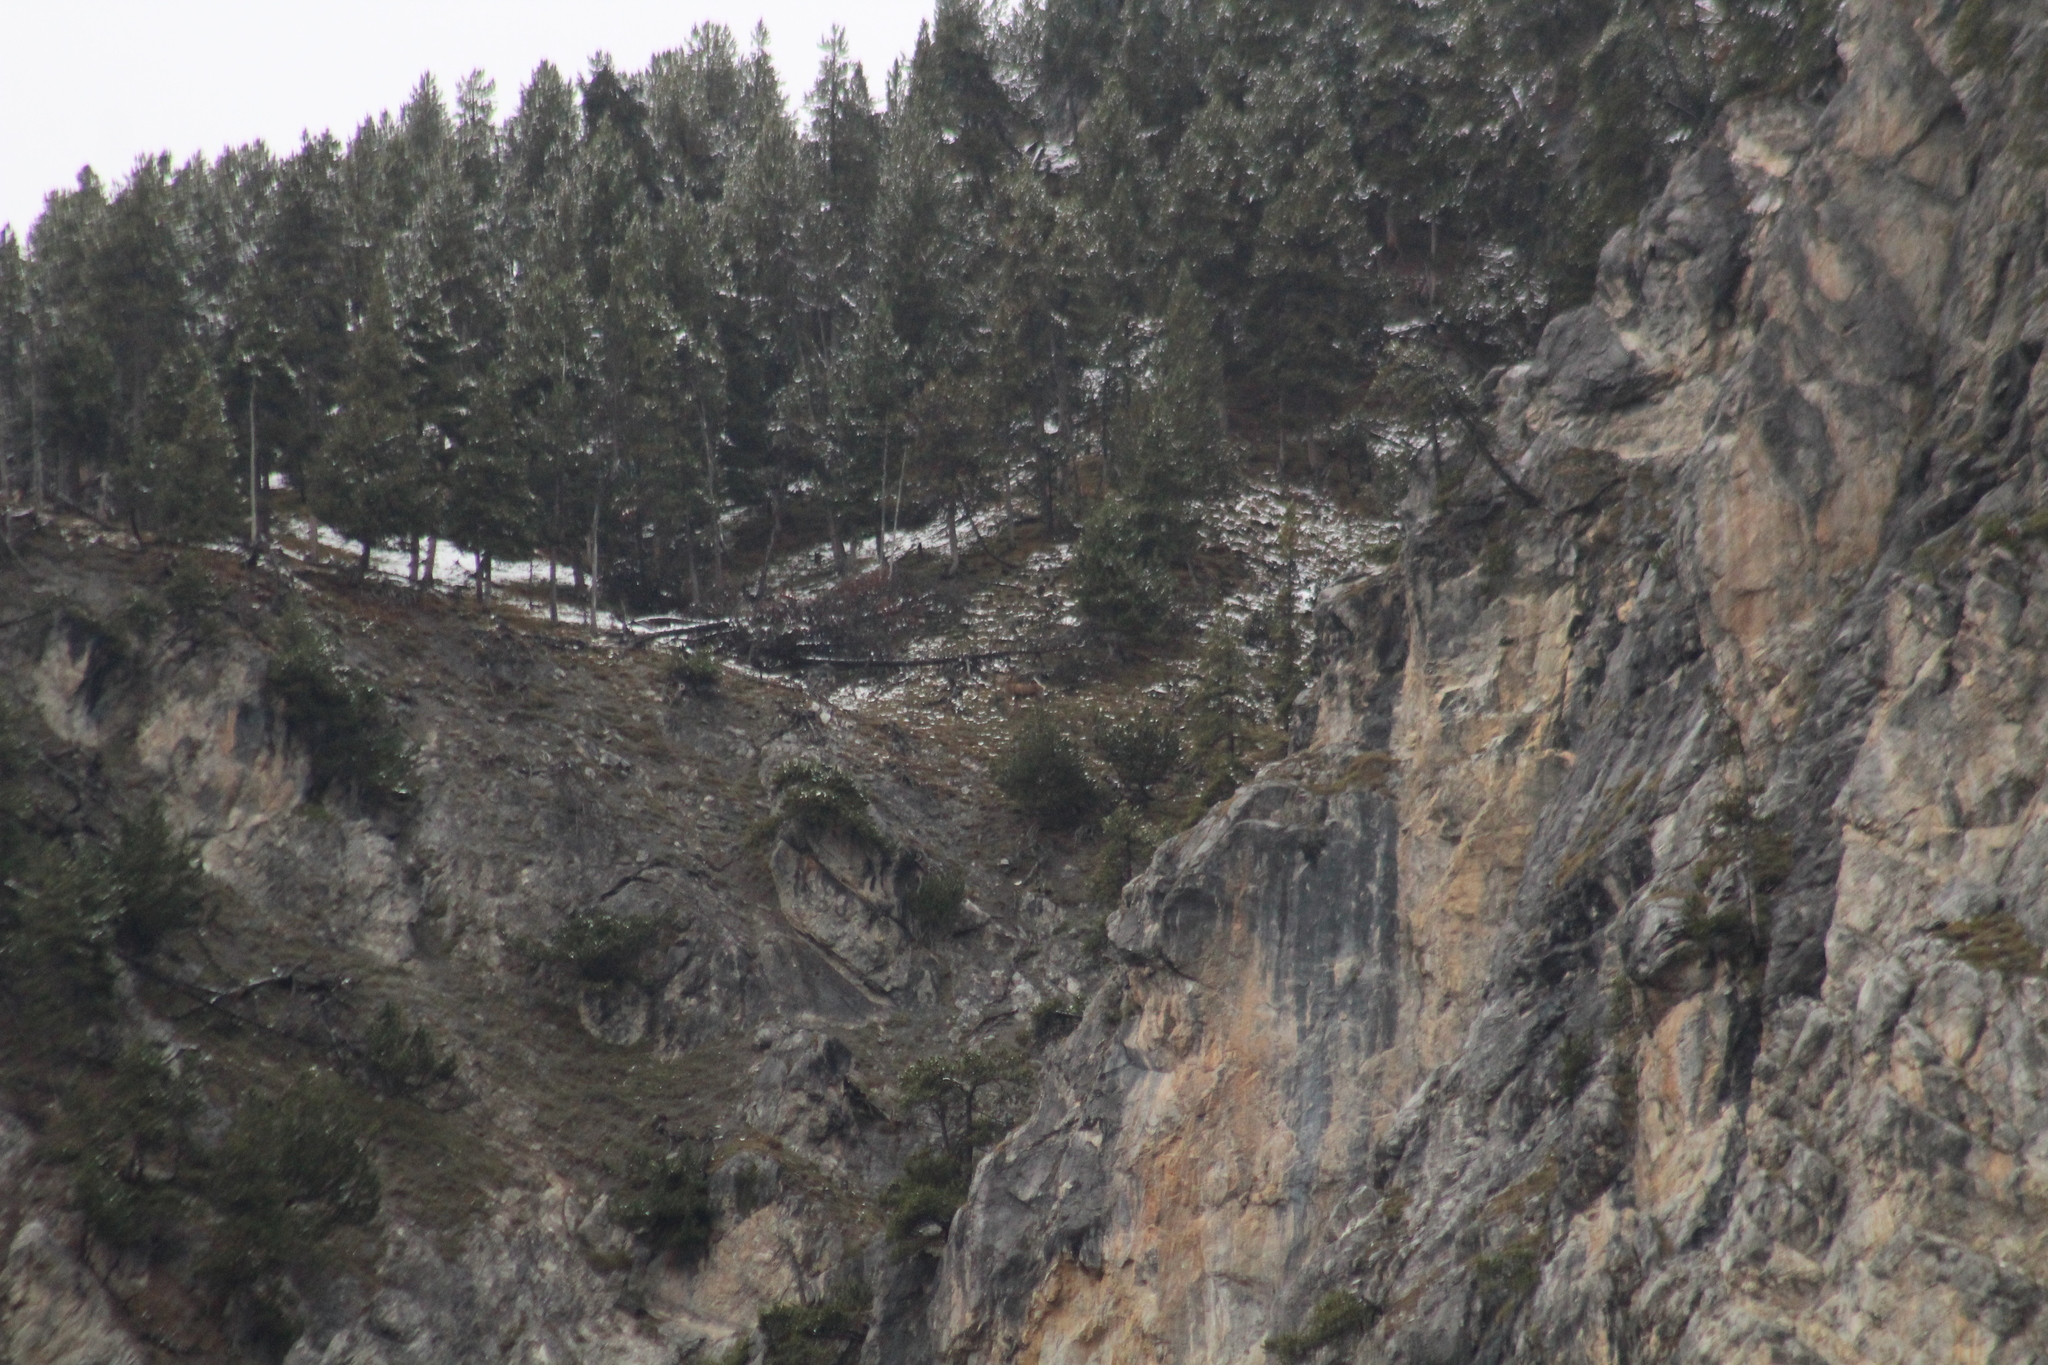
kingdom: Animalia
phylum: Chordata
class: Mammalia
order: Artiodactyla
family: Cervidae
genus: Cervus
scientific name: Cervus elaphus
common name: Red deer
